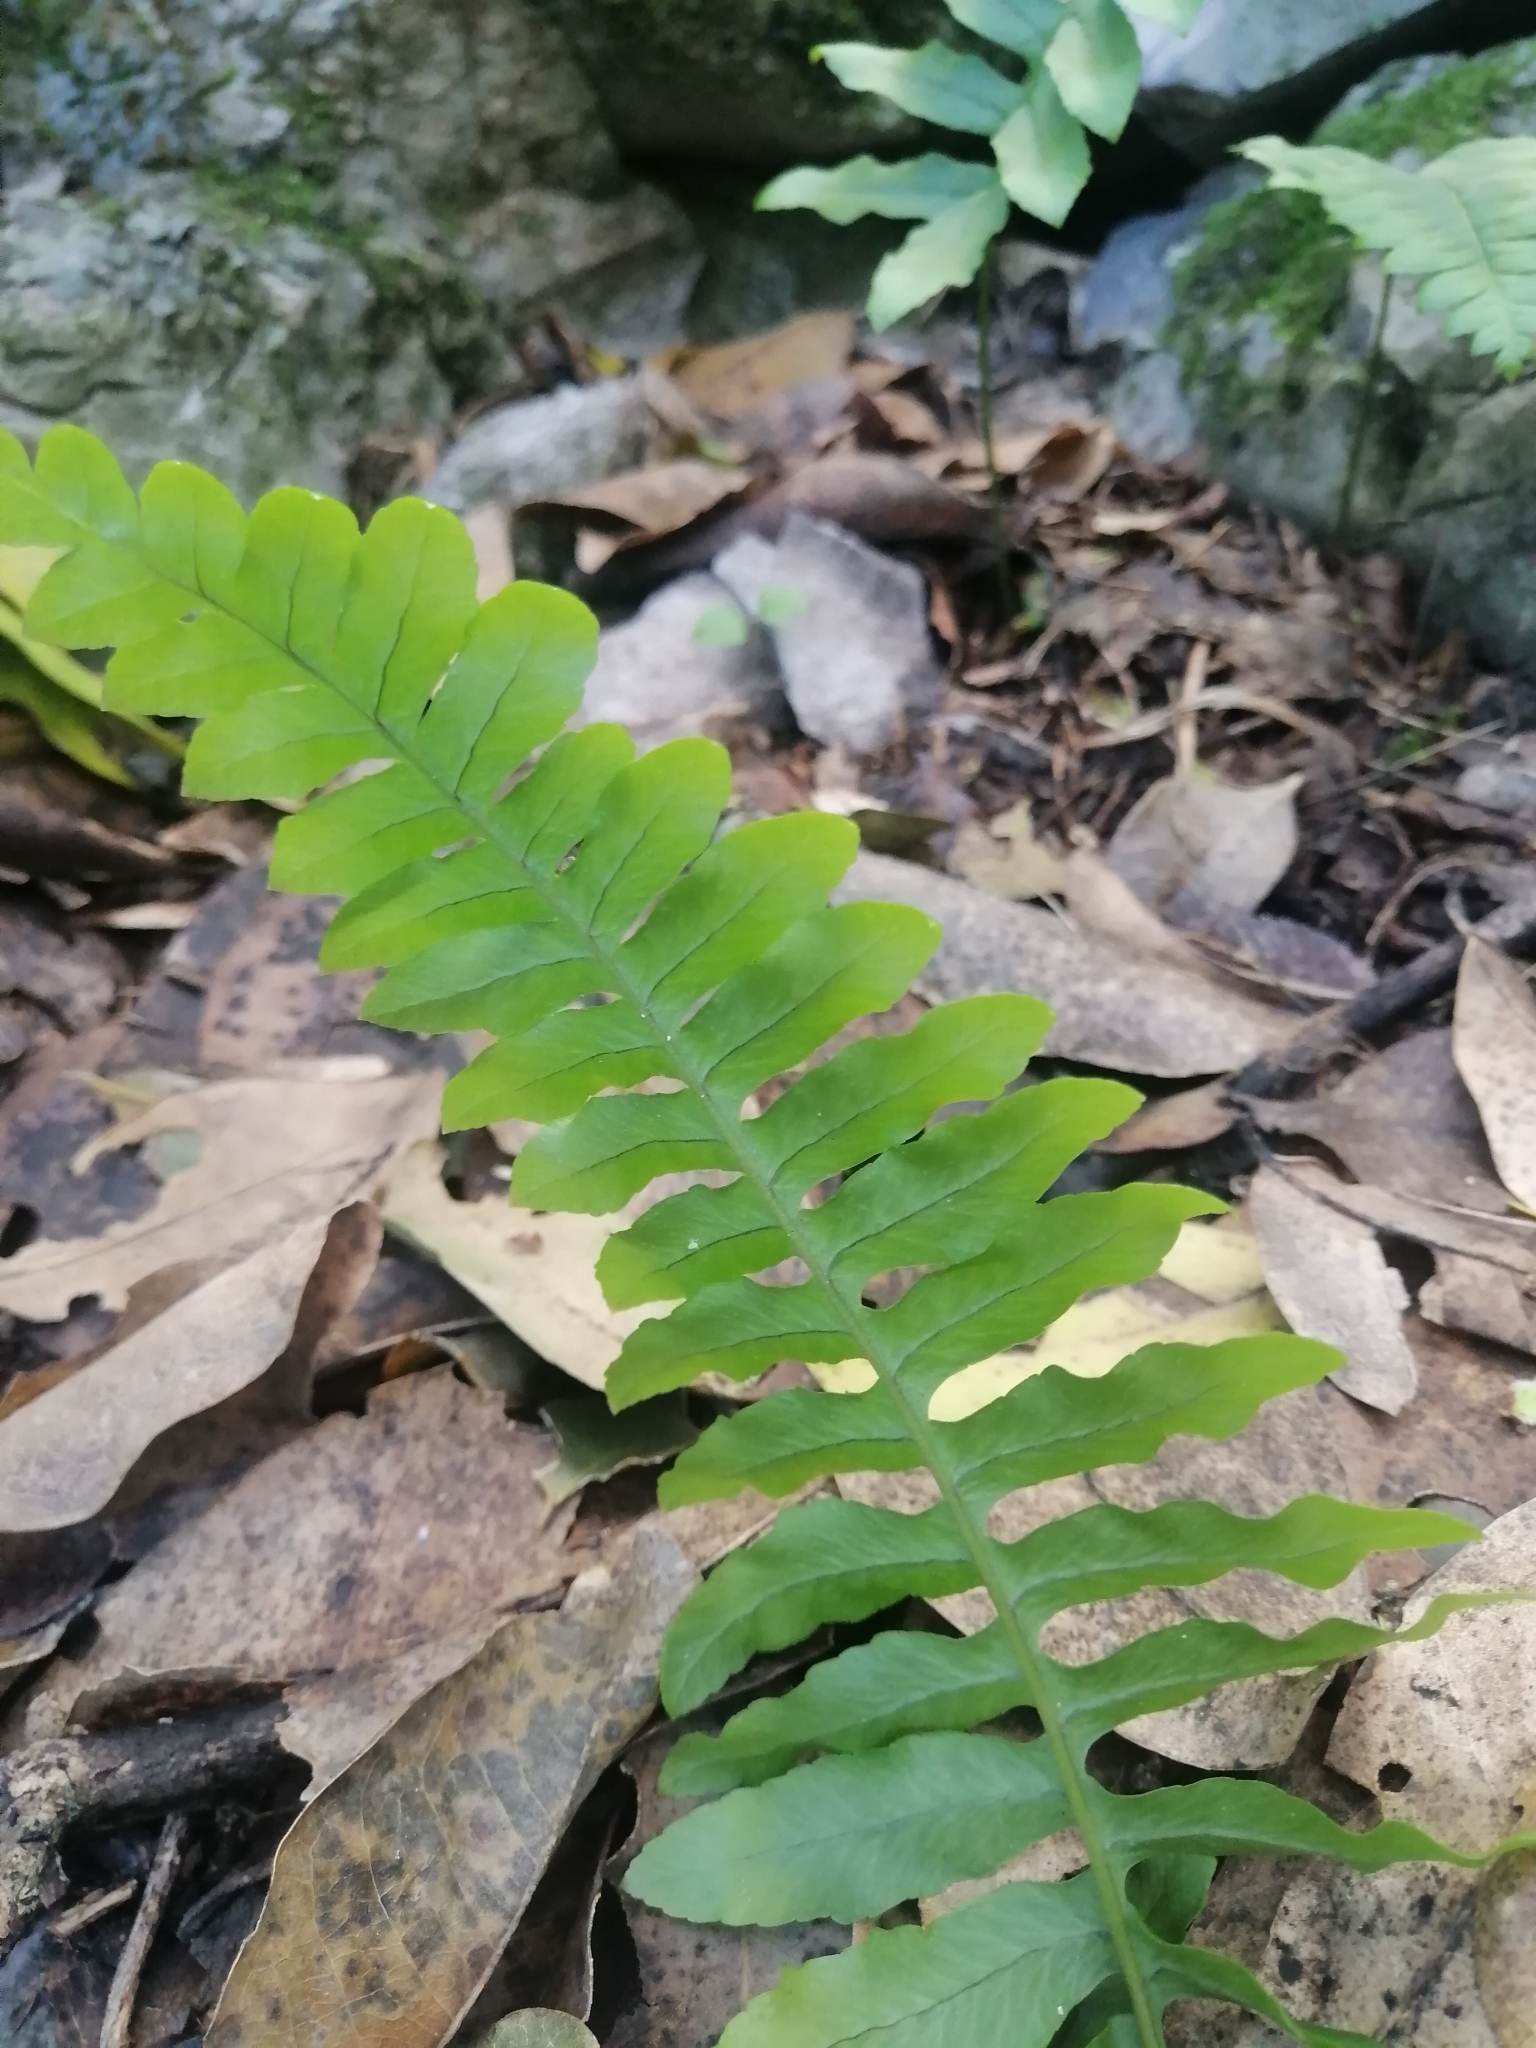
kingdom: Plantae
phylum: Tracheophyta
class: Polypodiopsida
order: Polypodiales
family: Polypodiaceae
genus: Polypodium
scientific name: Polypodium plesiosorum
